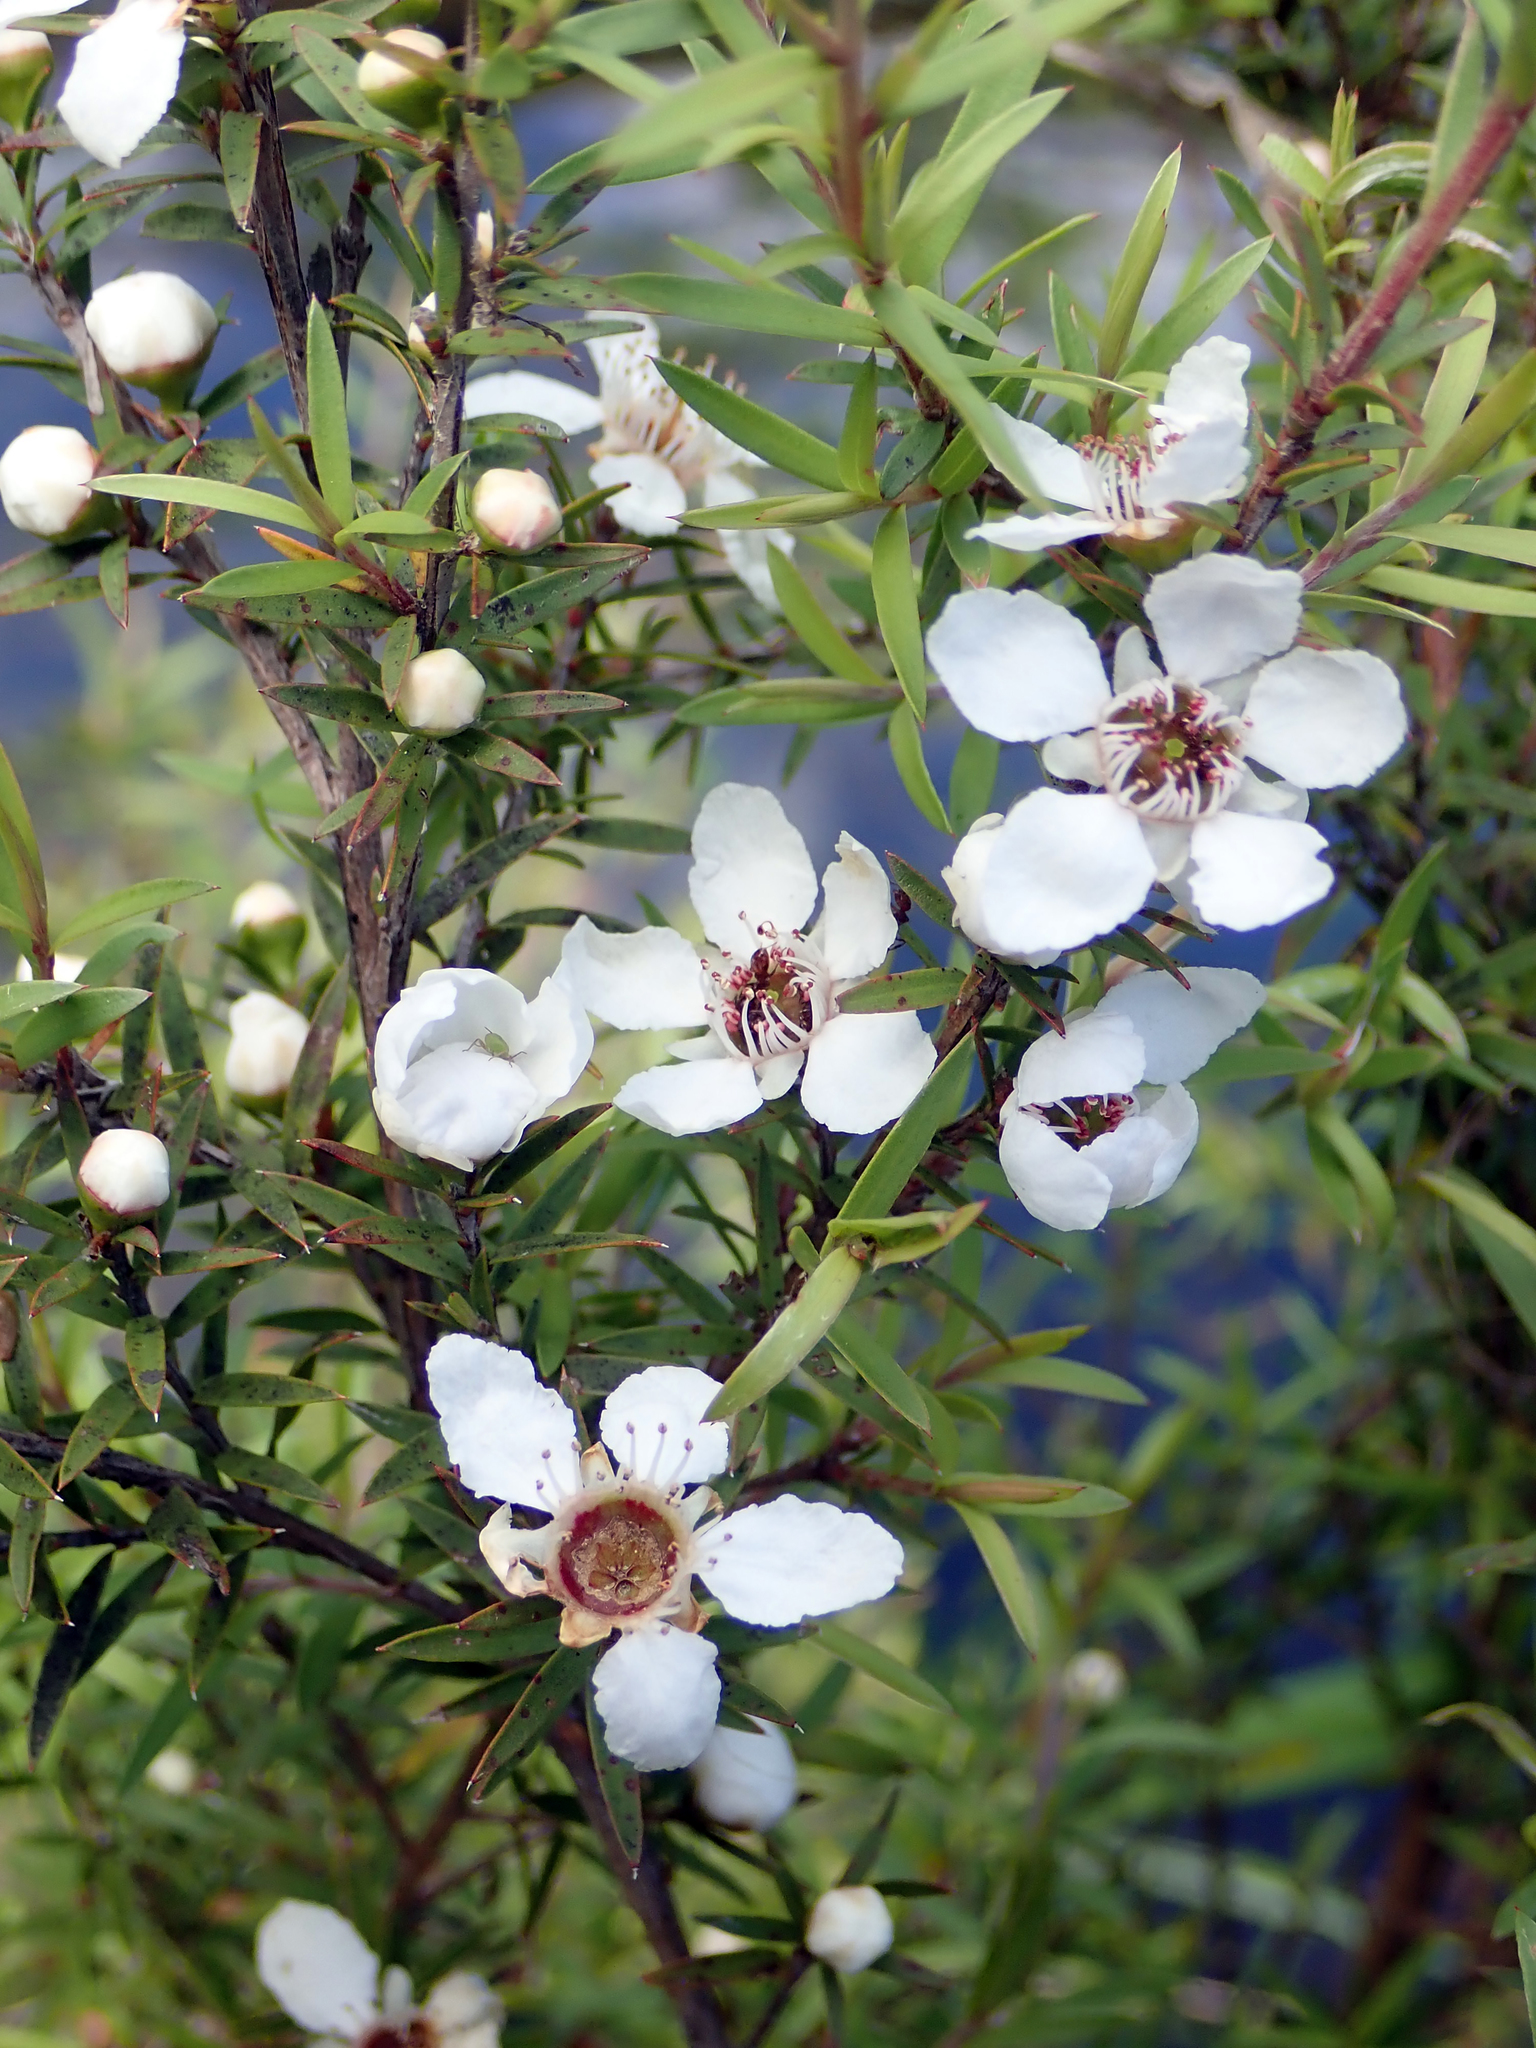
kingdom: Plantae
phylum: Tracheophyta
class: Magnoliopsida
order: Myrtales
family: Myrtaceae
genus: Leptospermum
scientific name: Leptospermum scoparium
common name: Broom tea-tree
